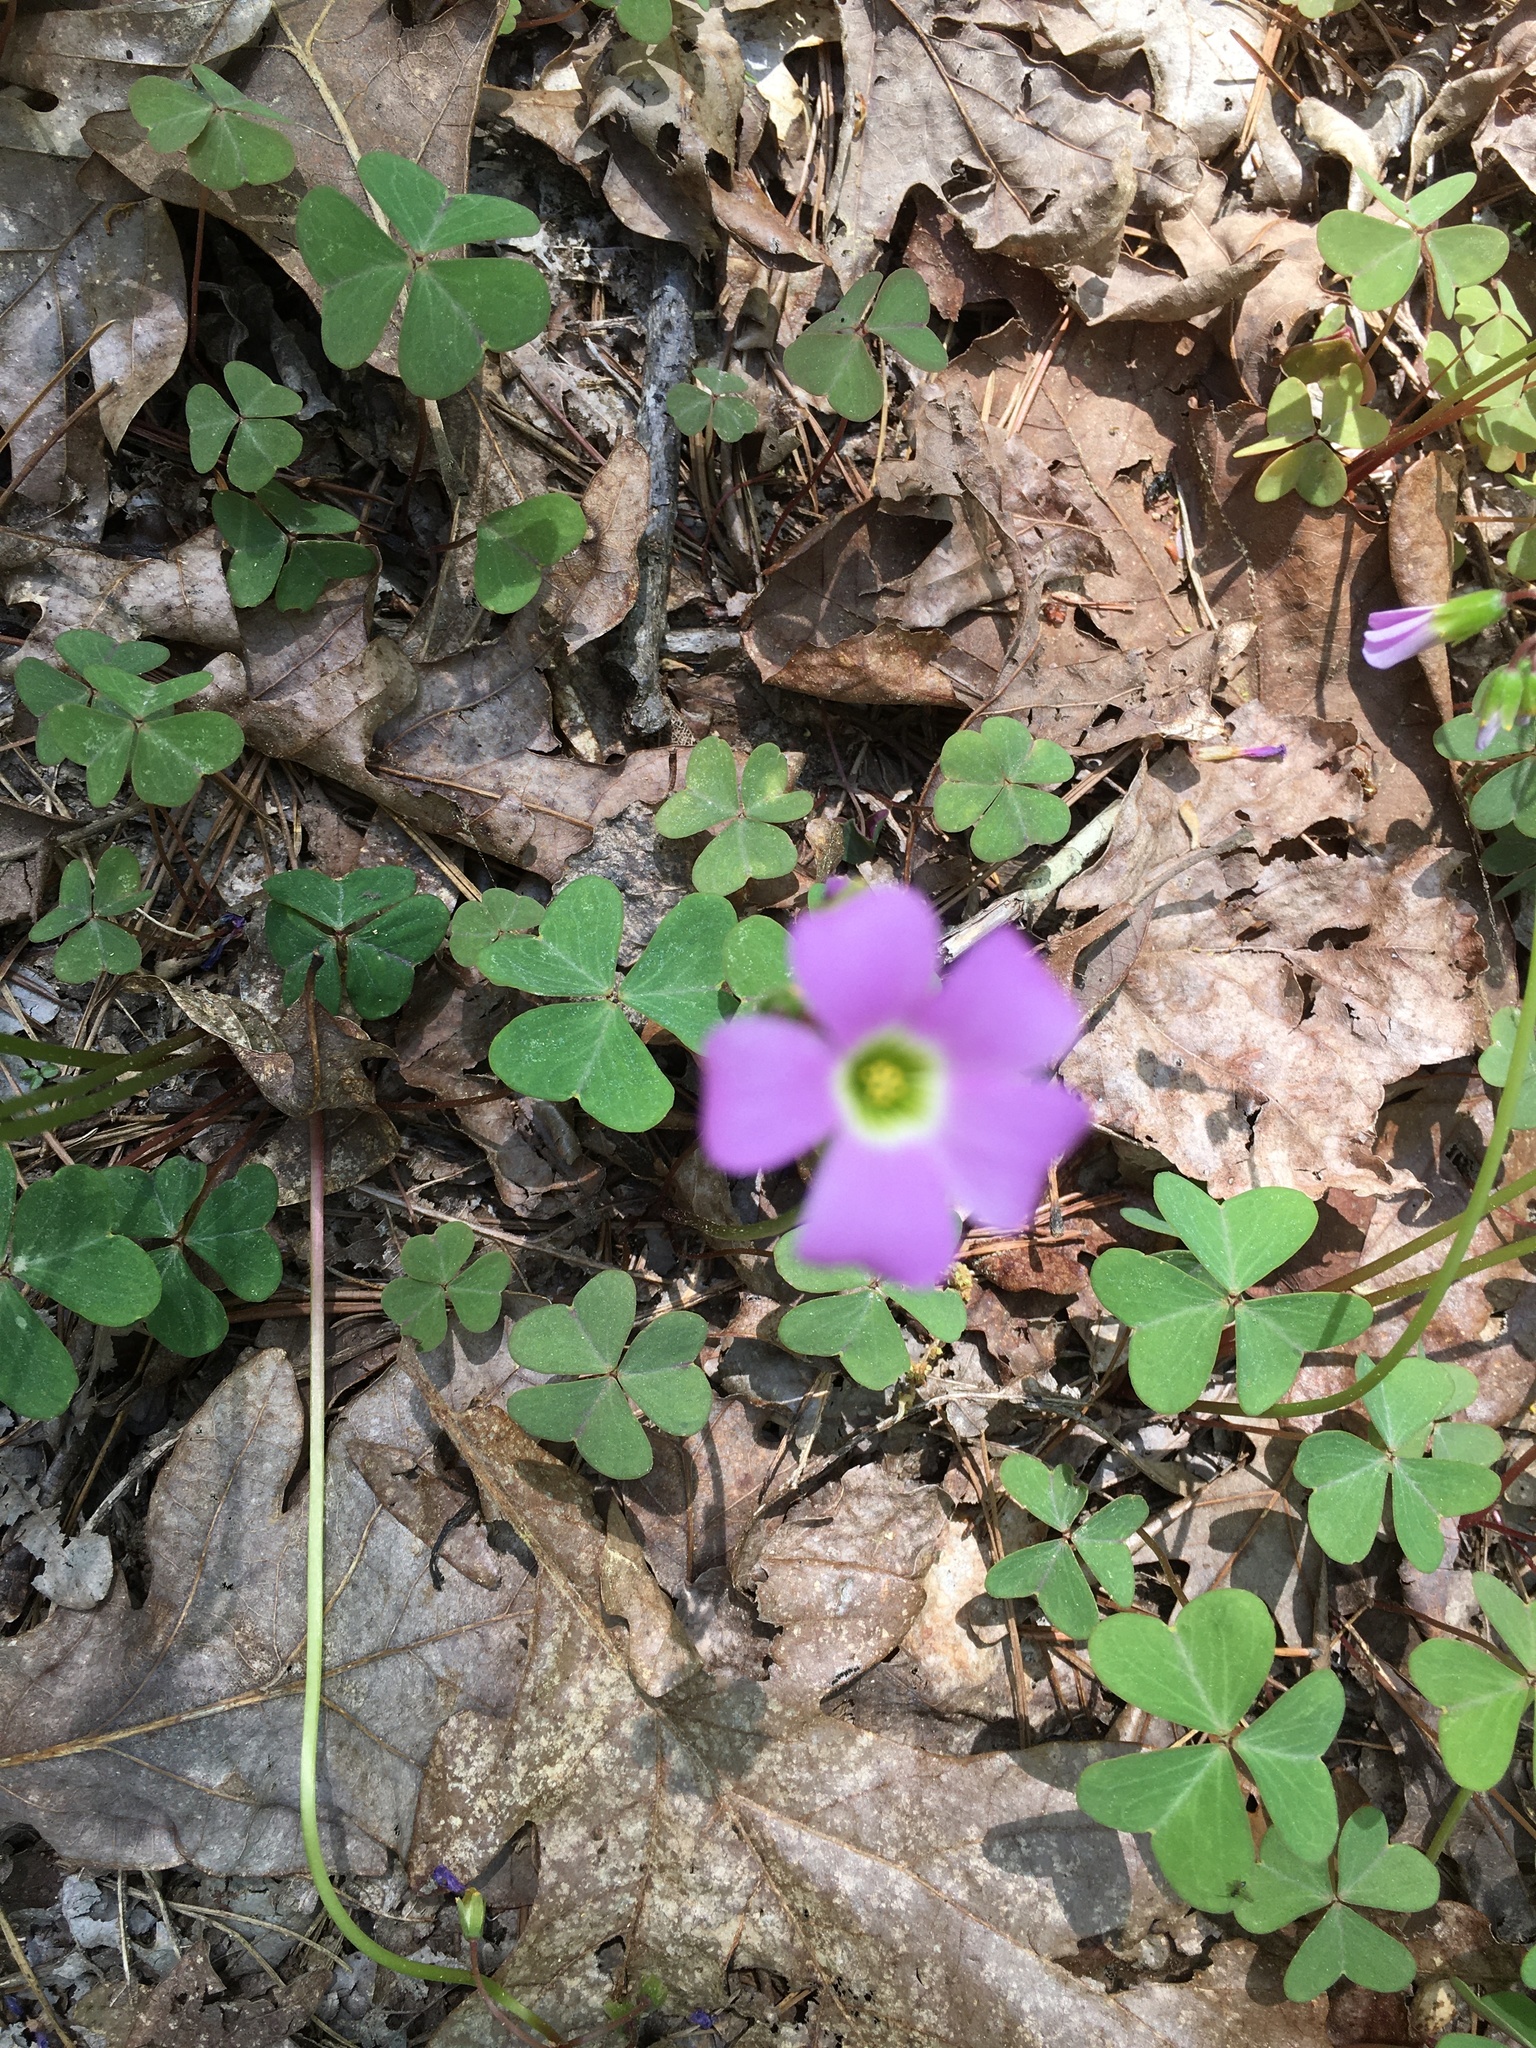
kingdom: Plantae
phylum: Tracheophyta
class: Magnoliopsida
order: Oxalidales
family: Oxalidaceae
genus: Oxalis
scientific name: Oxalis violacea
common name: Violet wood-sorrel
